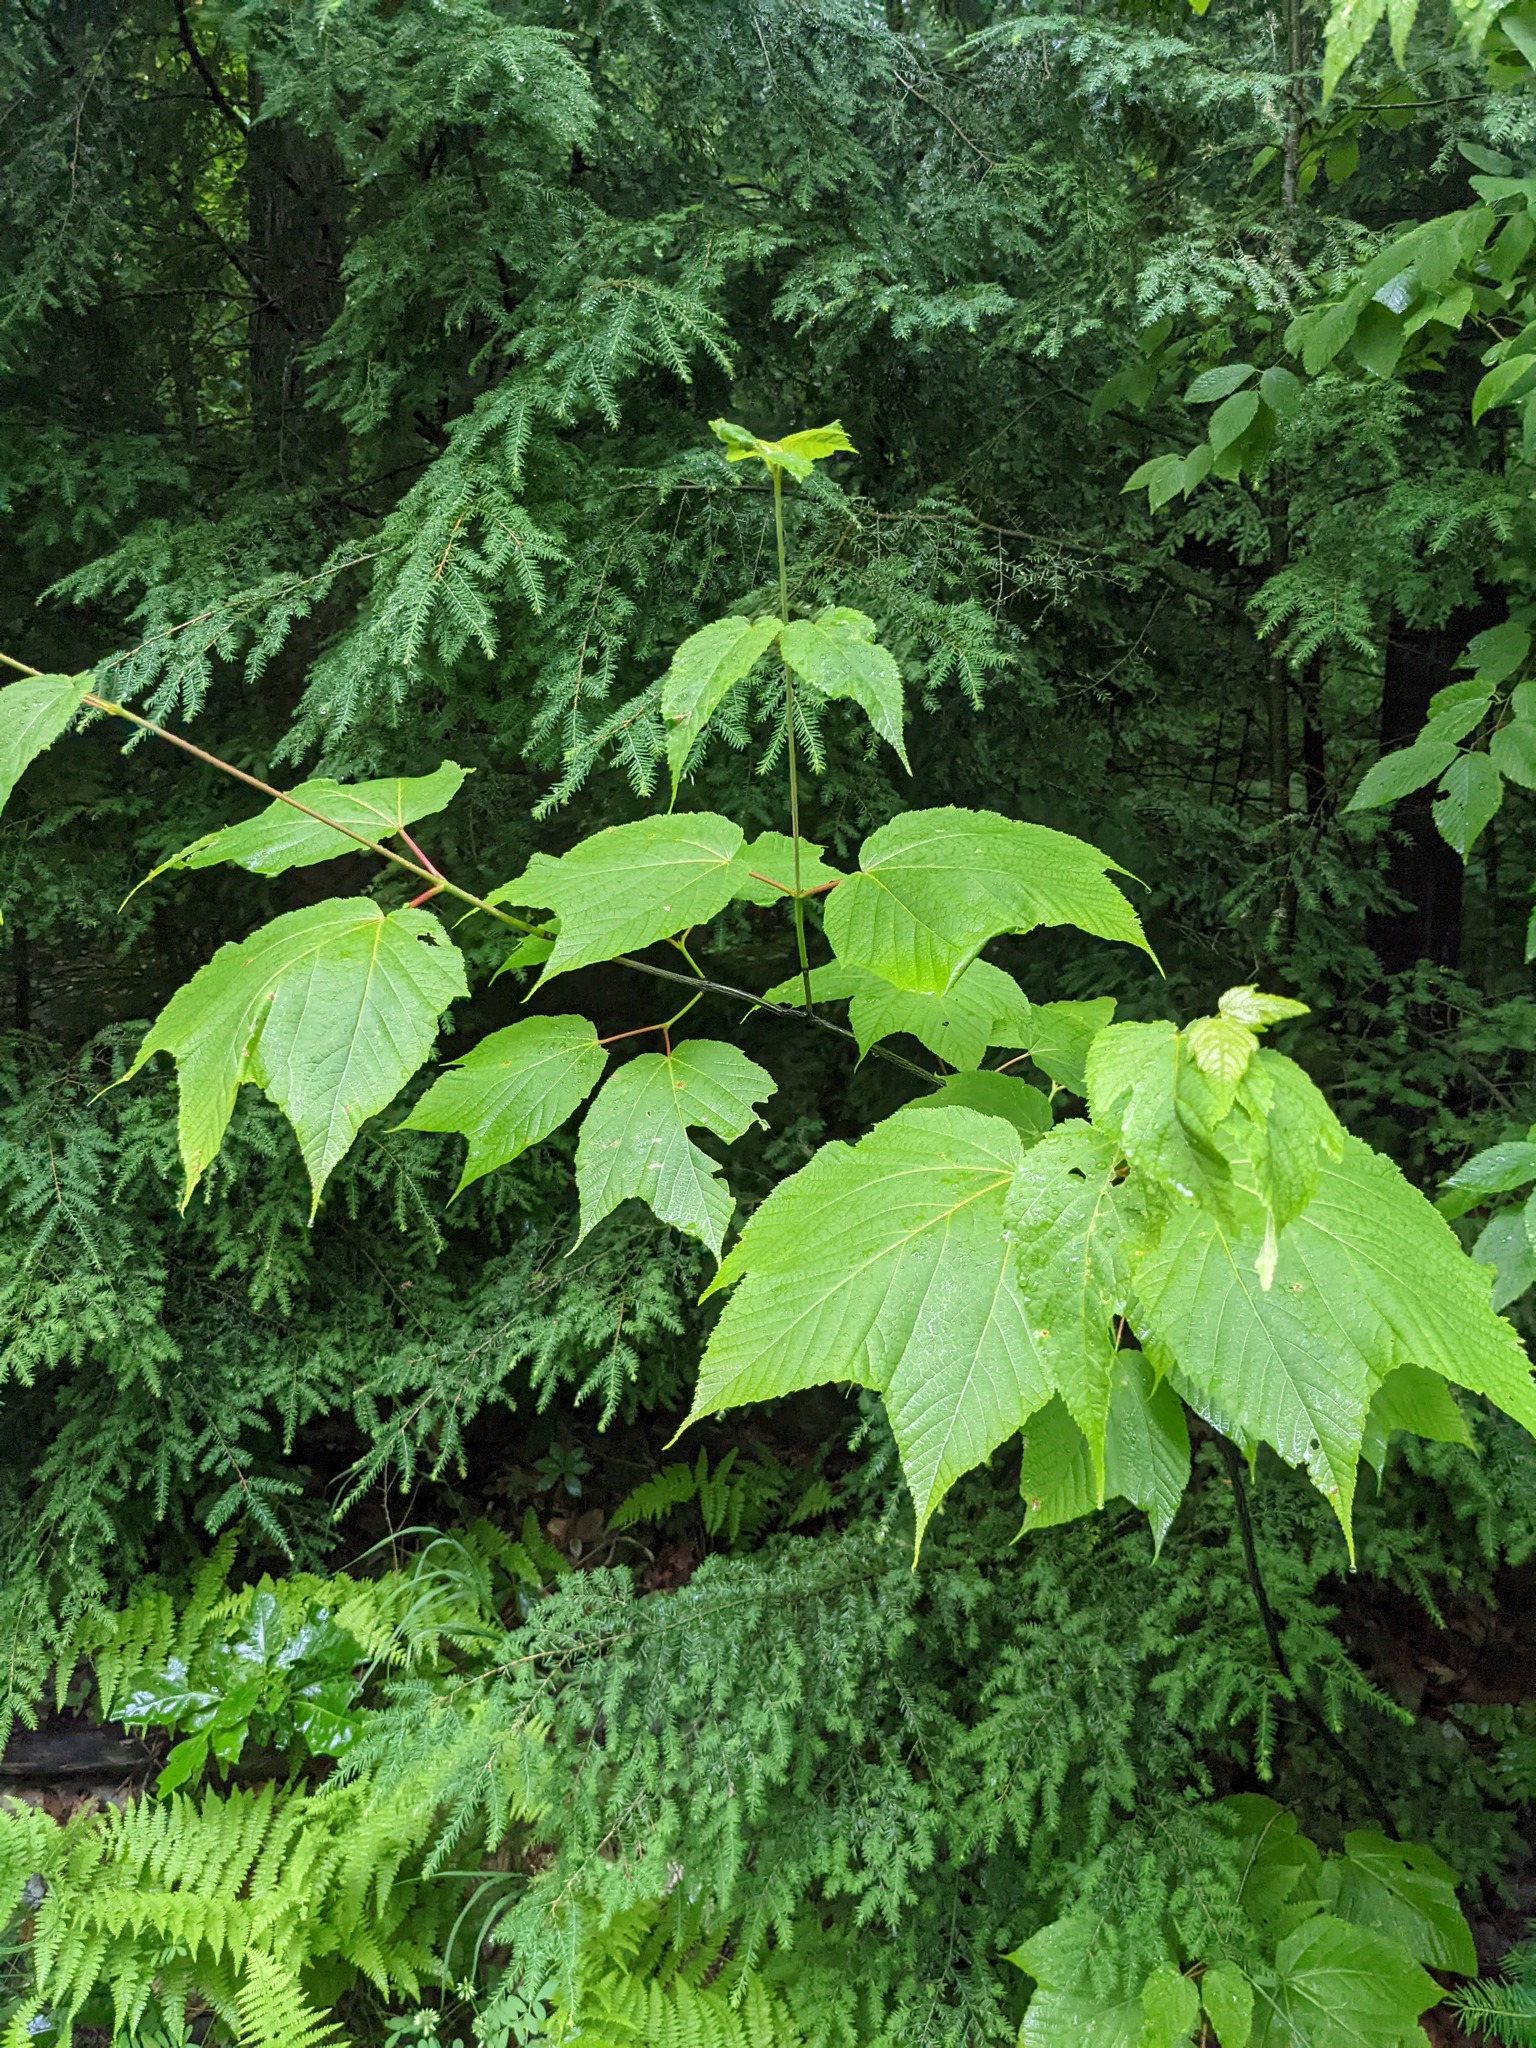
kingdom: Plantae
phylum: Tracheophyta
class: Magnoliopsida
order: Sapindales
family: Sapindaceae
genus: Acer
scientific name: Acer pensylvanicum
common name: Moosewood
